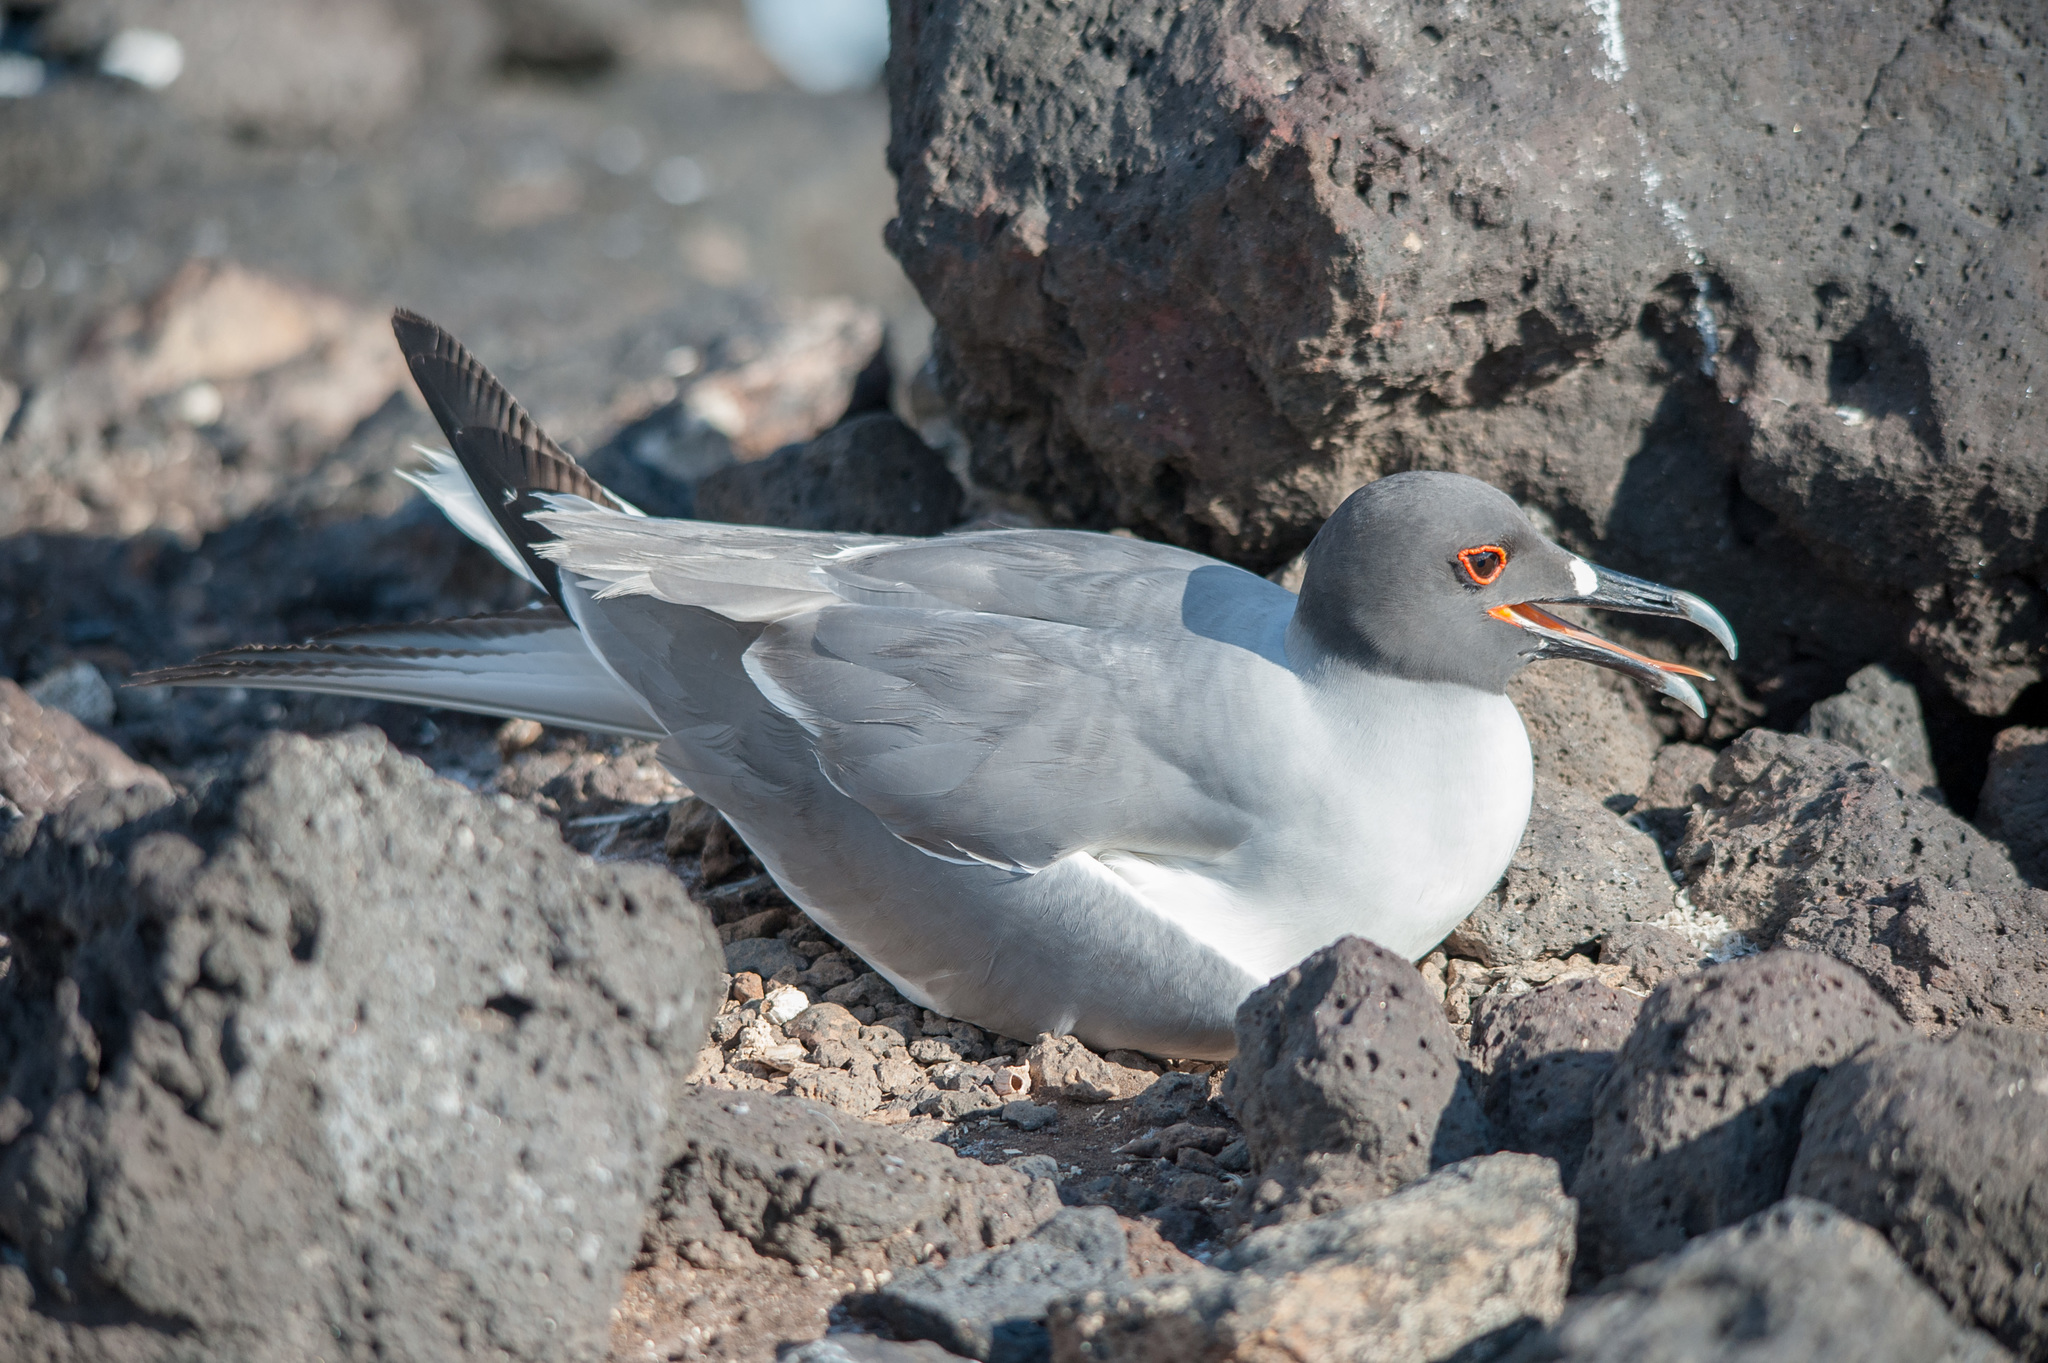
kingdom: Animalia
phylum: Chordata
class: Aves
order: Charadriiformes
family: Laridae
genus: Creagrus
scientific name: Creagrus furcatus
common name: Swallow-tailed gull
